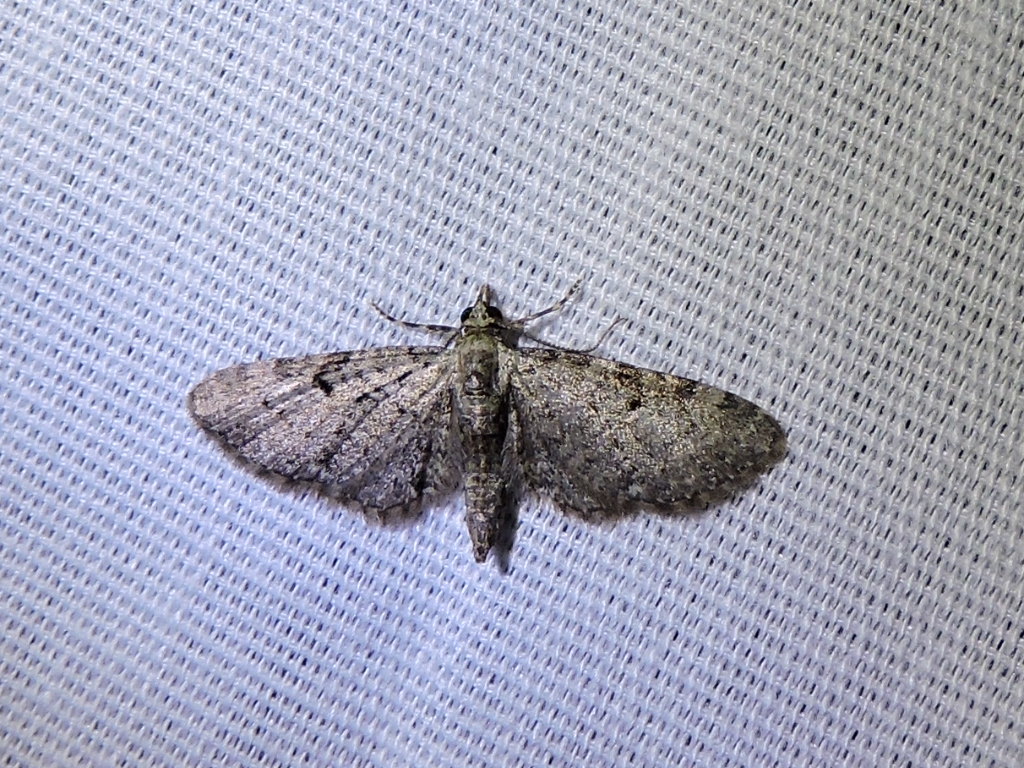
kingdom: Animalia
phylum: Arthropoda
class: Insecta
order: Lepidoptera
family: Geometridae
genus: Eupithecia
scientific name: Eupithecia miserulata
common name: Common eupithecia
